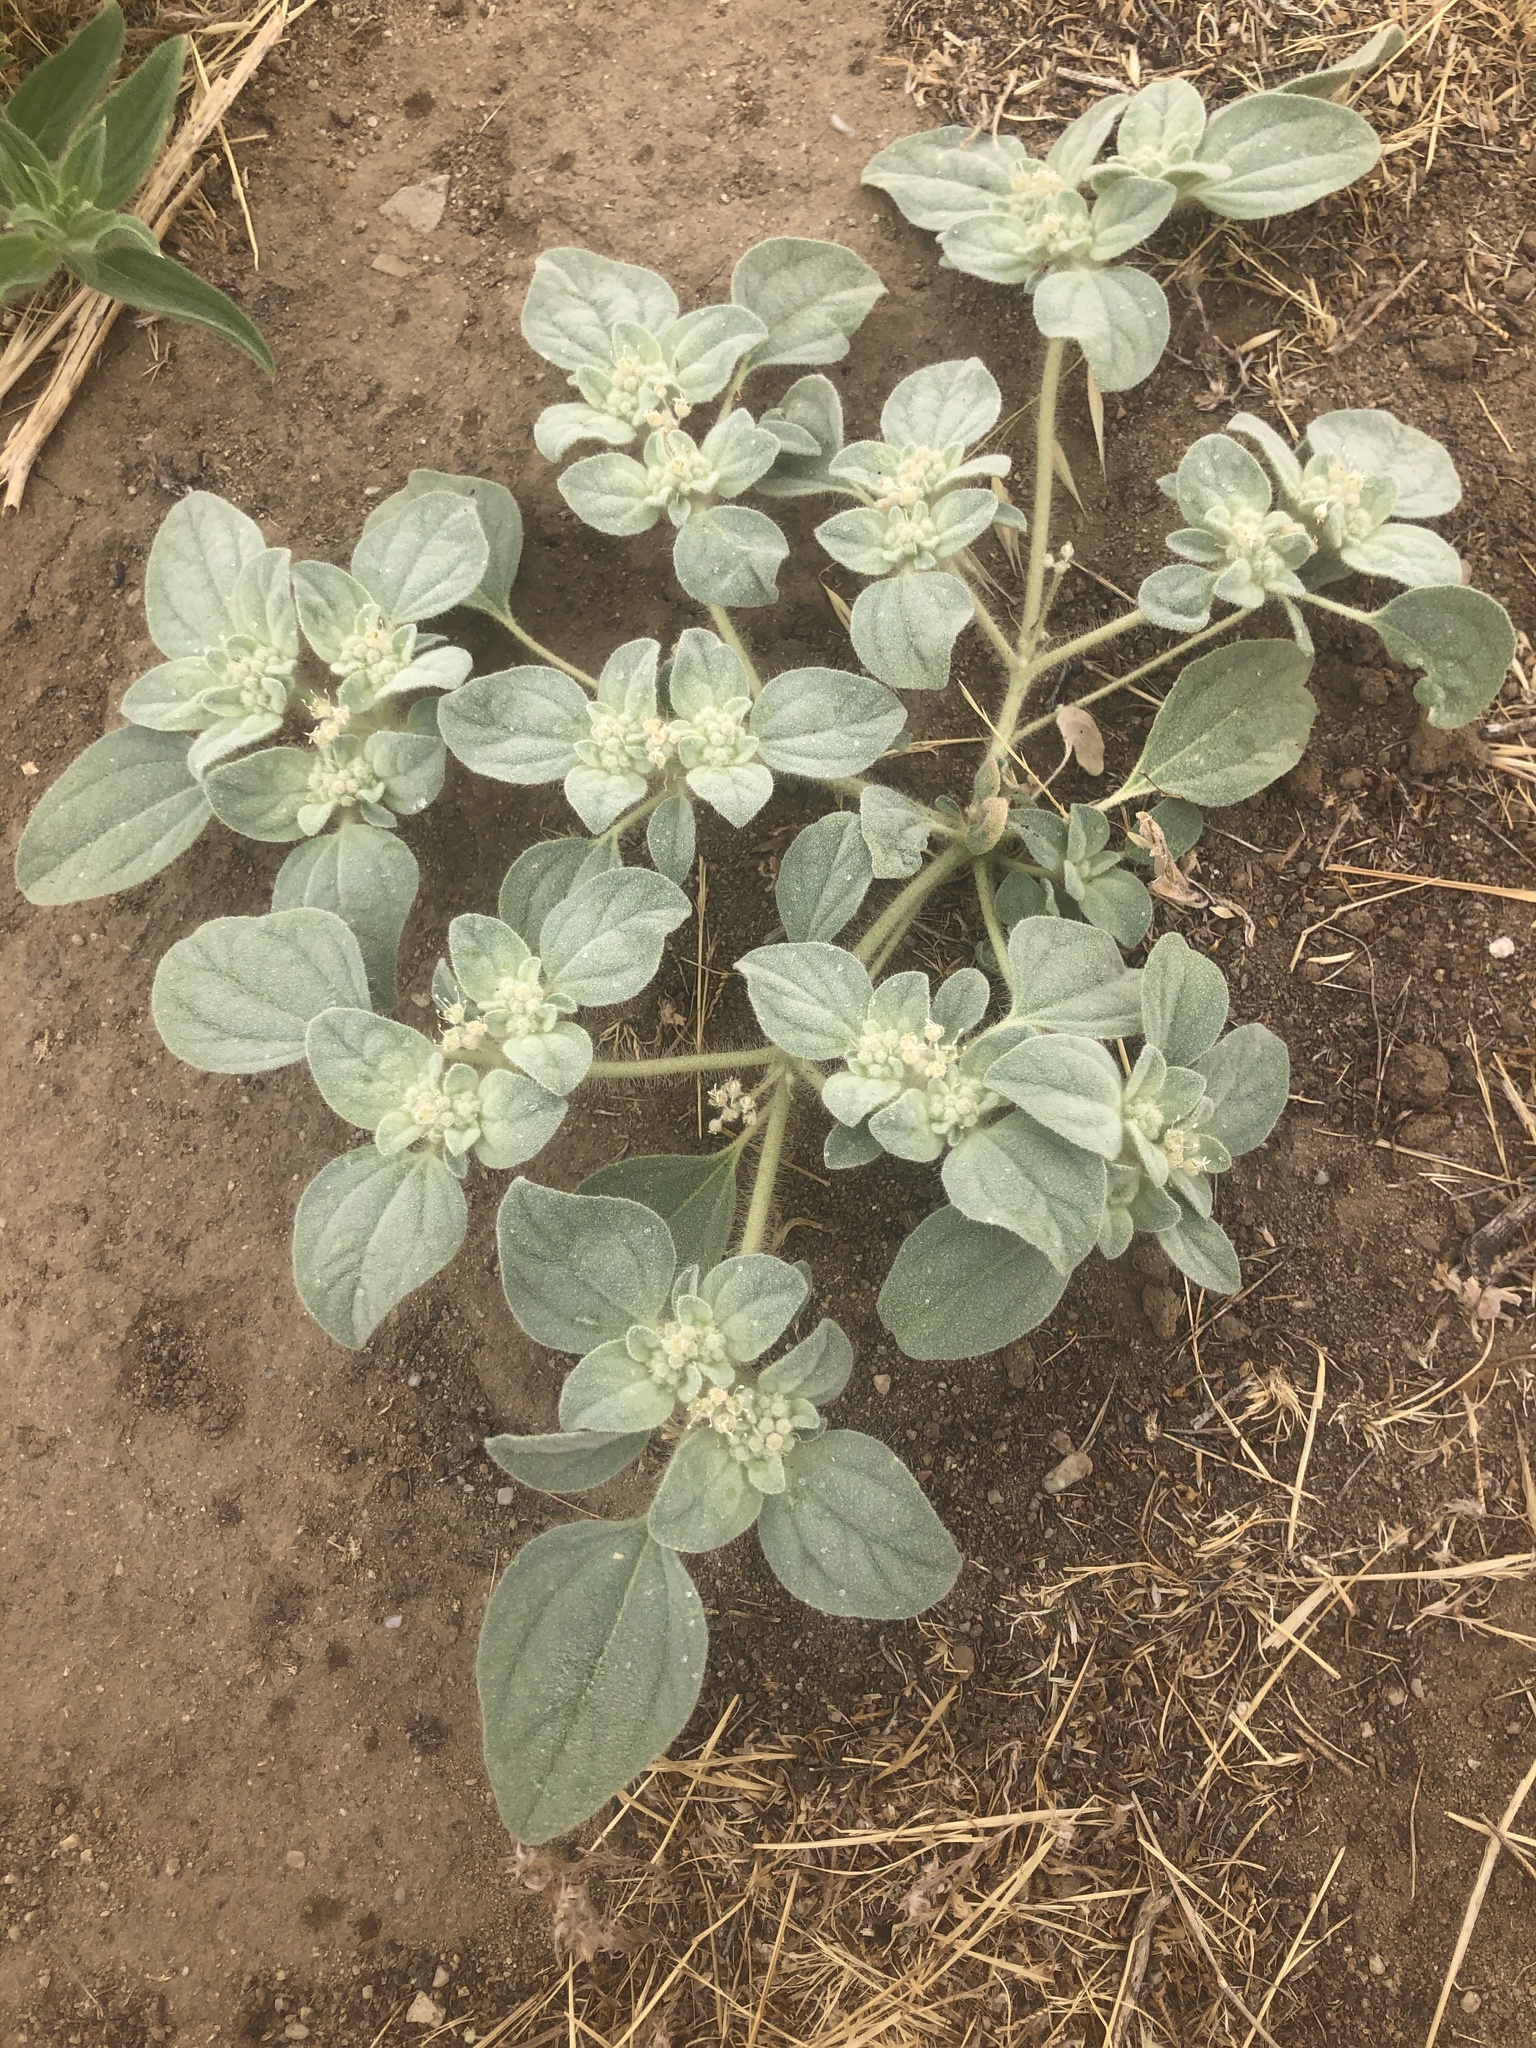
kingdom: Plantae
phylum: Tracheophyta
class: Magnoliopsida
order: Malpighiales
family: Euphorbiaceae
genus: Croton
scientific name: Croton setiger
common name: Dove weed
